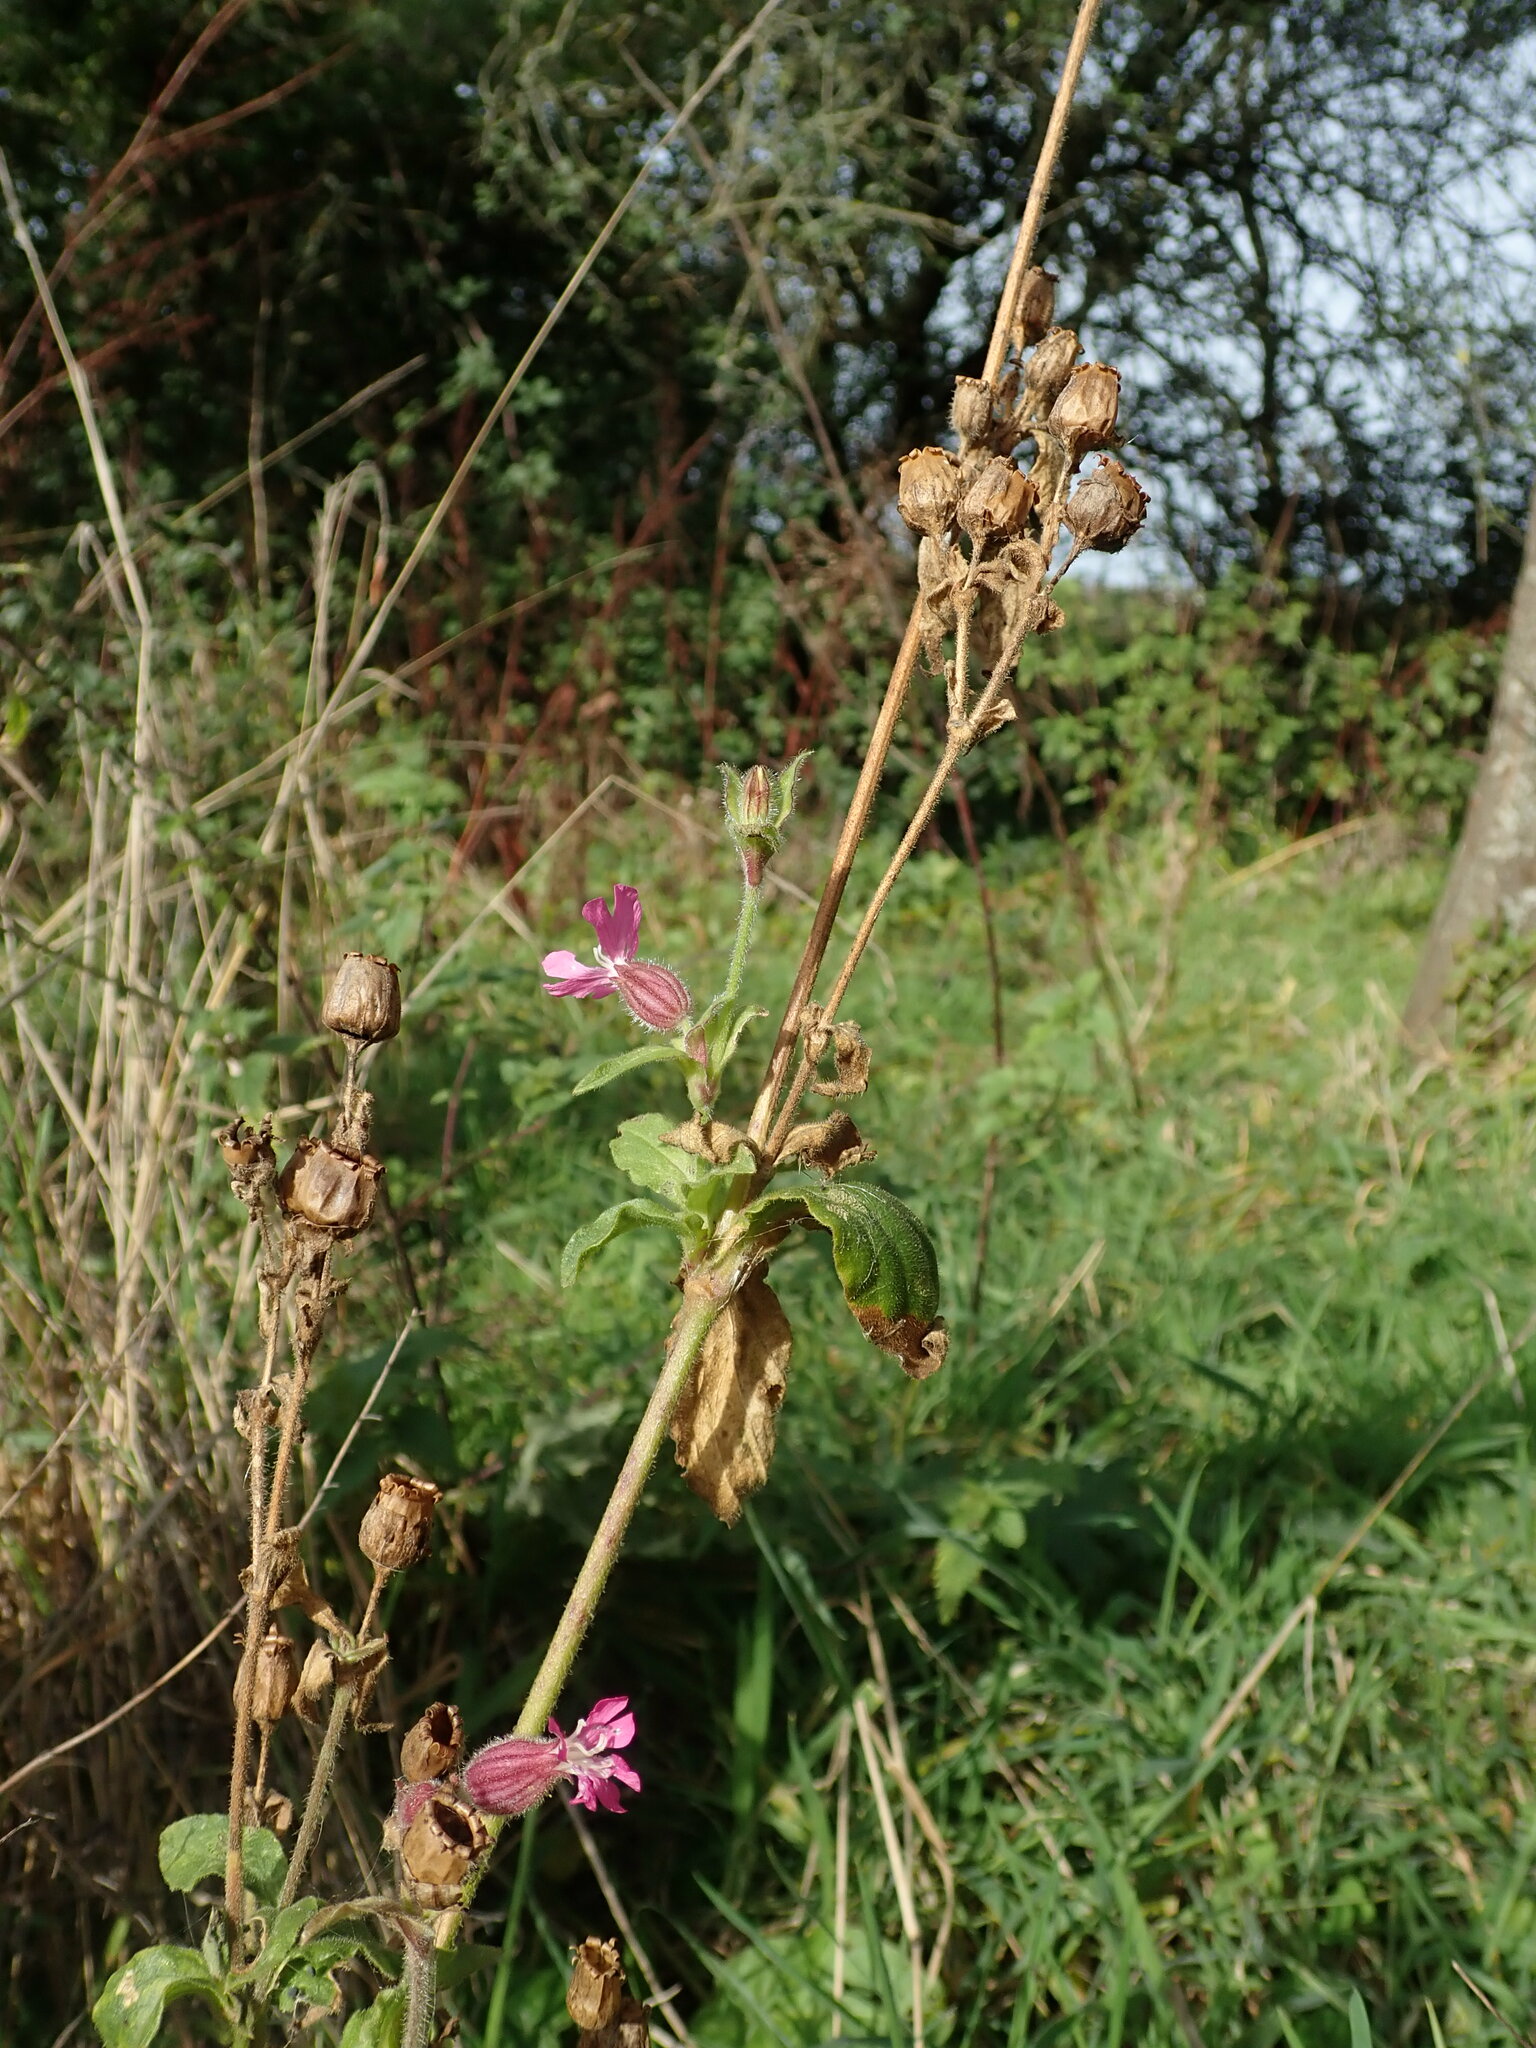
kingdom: Plantae
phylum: Tracheophyta
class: Magnoliopsida
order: Caryophyllales
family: Caryophyllaceae
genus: Silene
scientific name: Silene dioica
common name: Red campion
